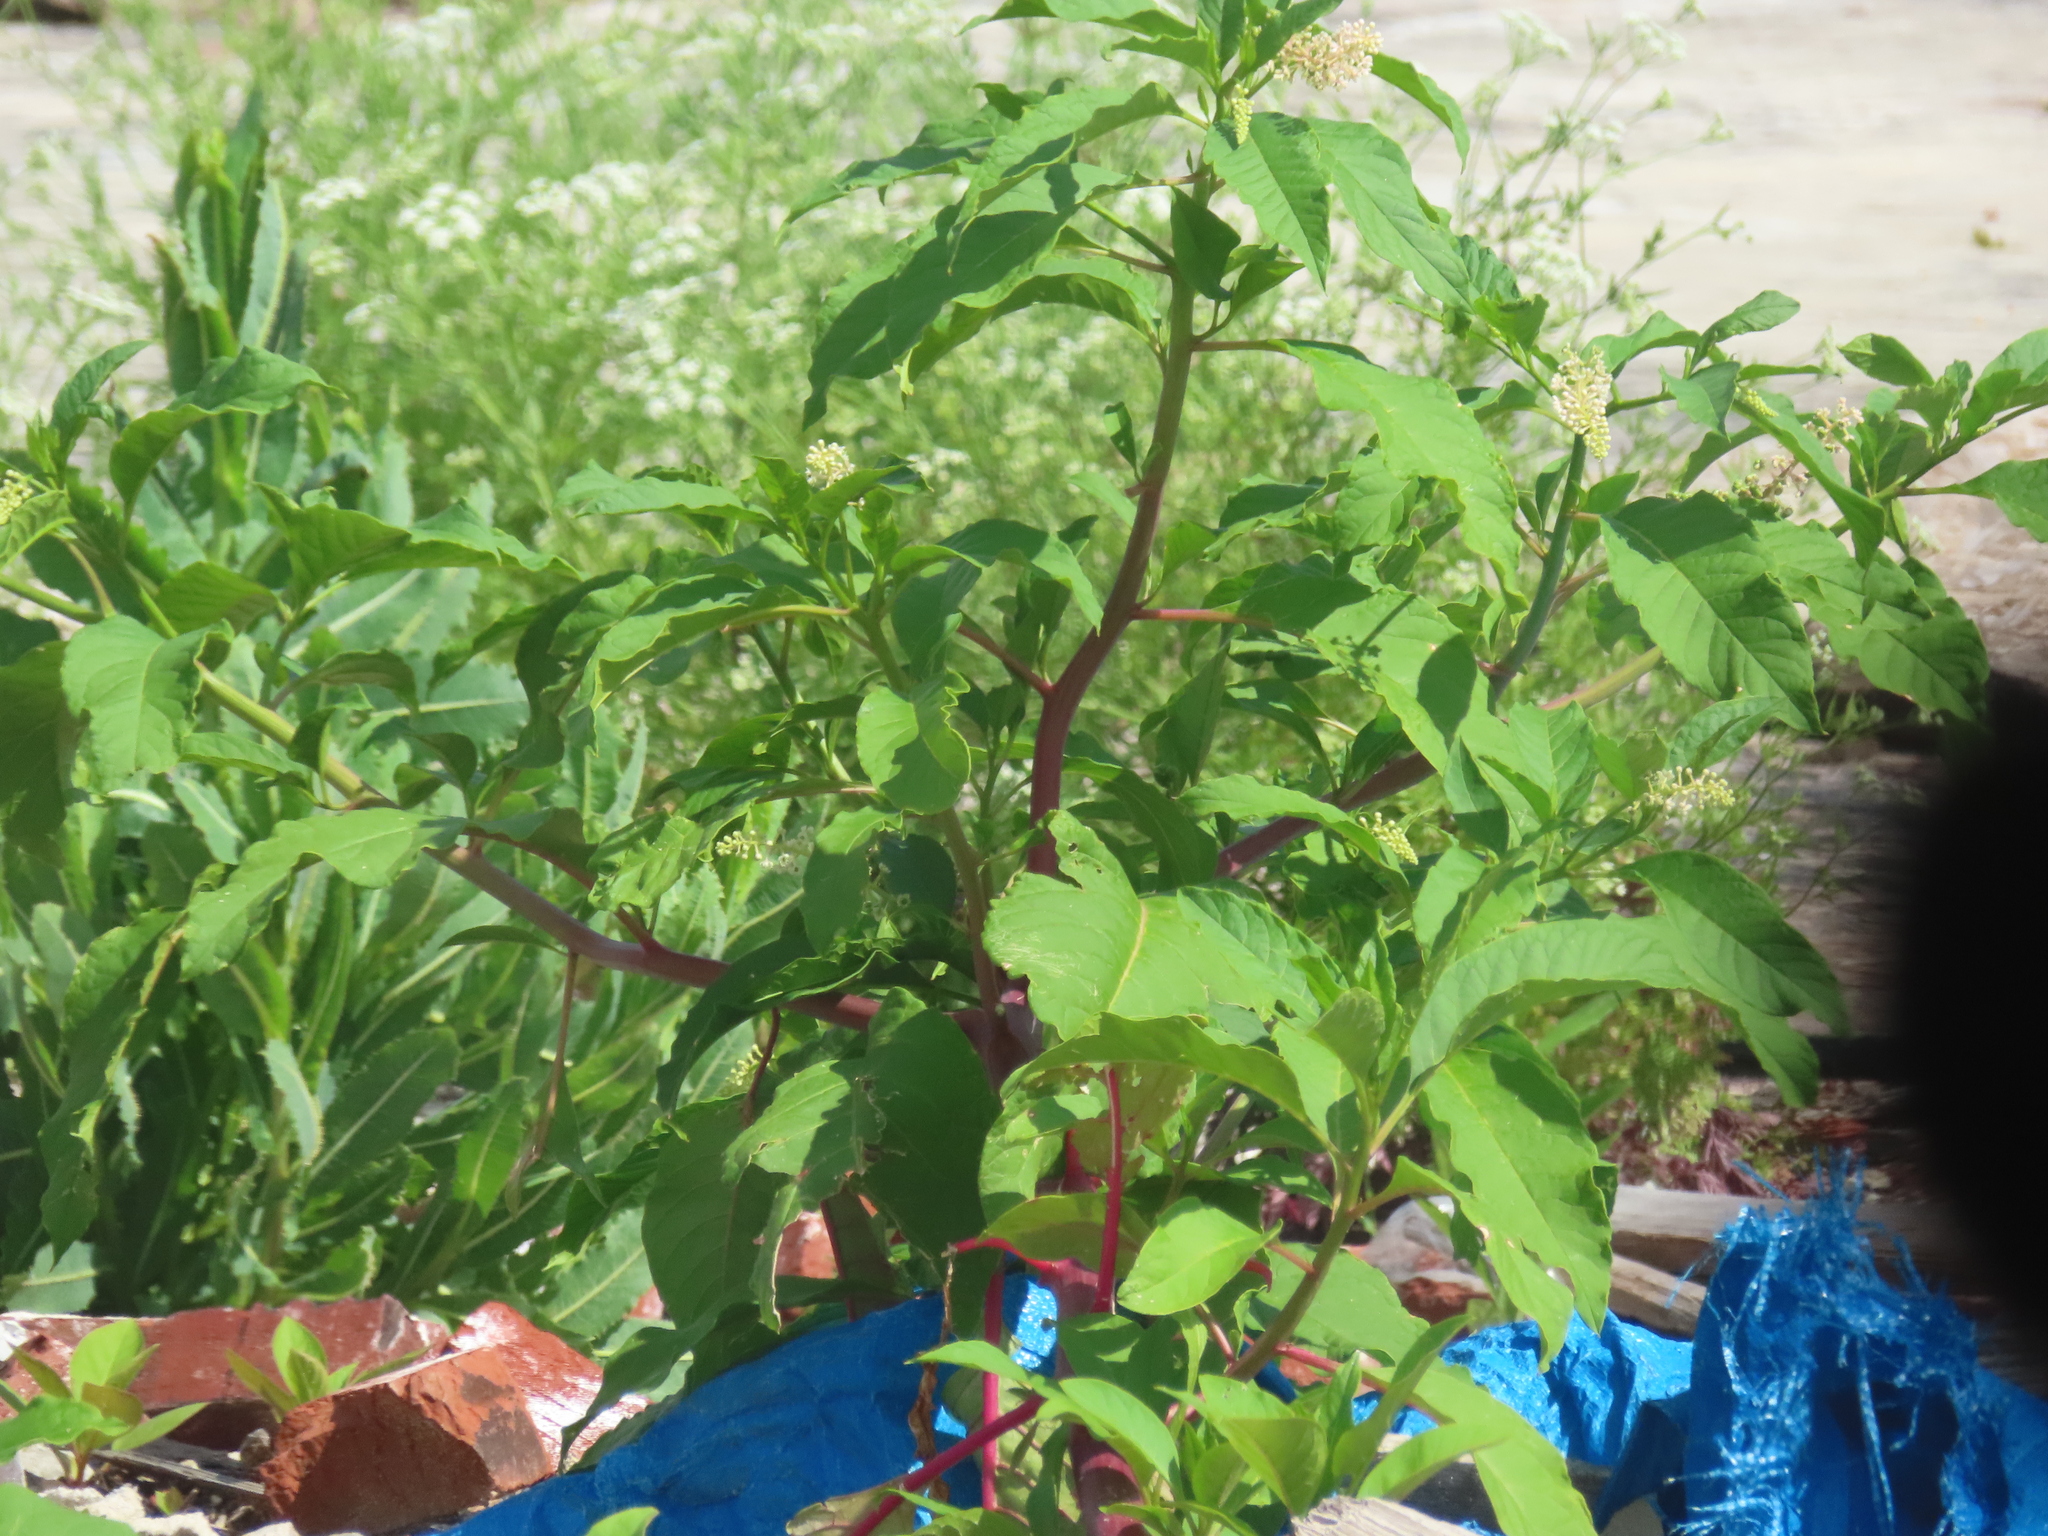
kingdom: Plantae
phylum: Tracheophyta
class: Magnoliopsida
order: Caryophyllales
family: Phytolaccaceae
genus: Phytolacca
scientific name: Phytolacca americana
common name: American pokeweed
